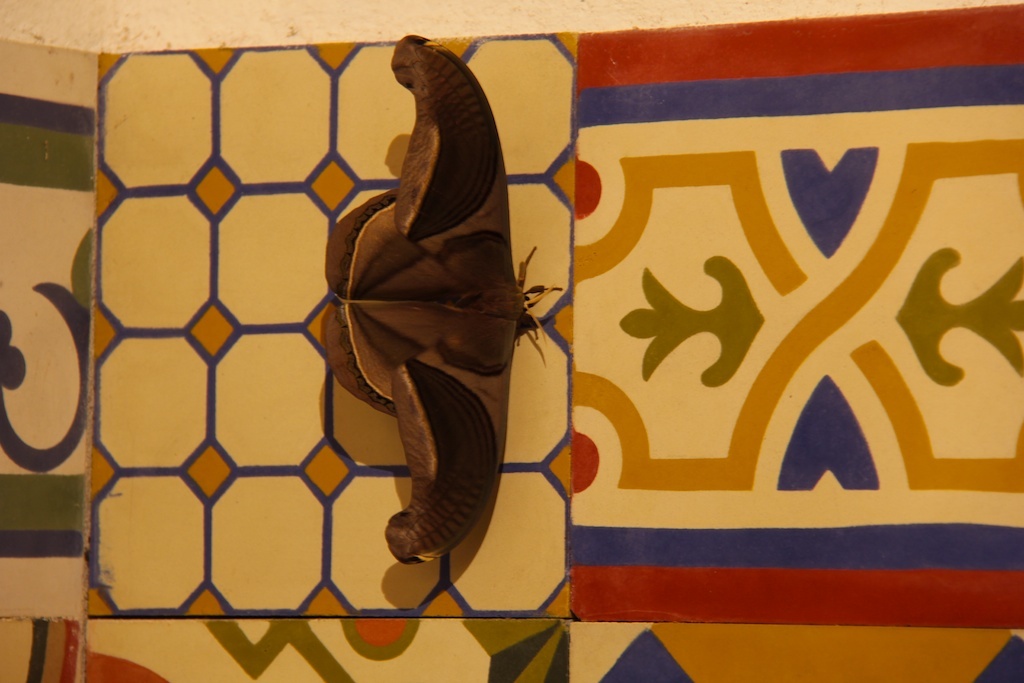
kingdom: Animalia
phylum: Arthropoda
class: Insecta
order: Lepidoptera
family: Saturniidae
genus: Rhescyntis
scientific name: Rhescyntis hippodamia
